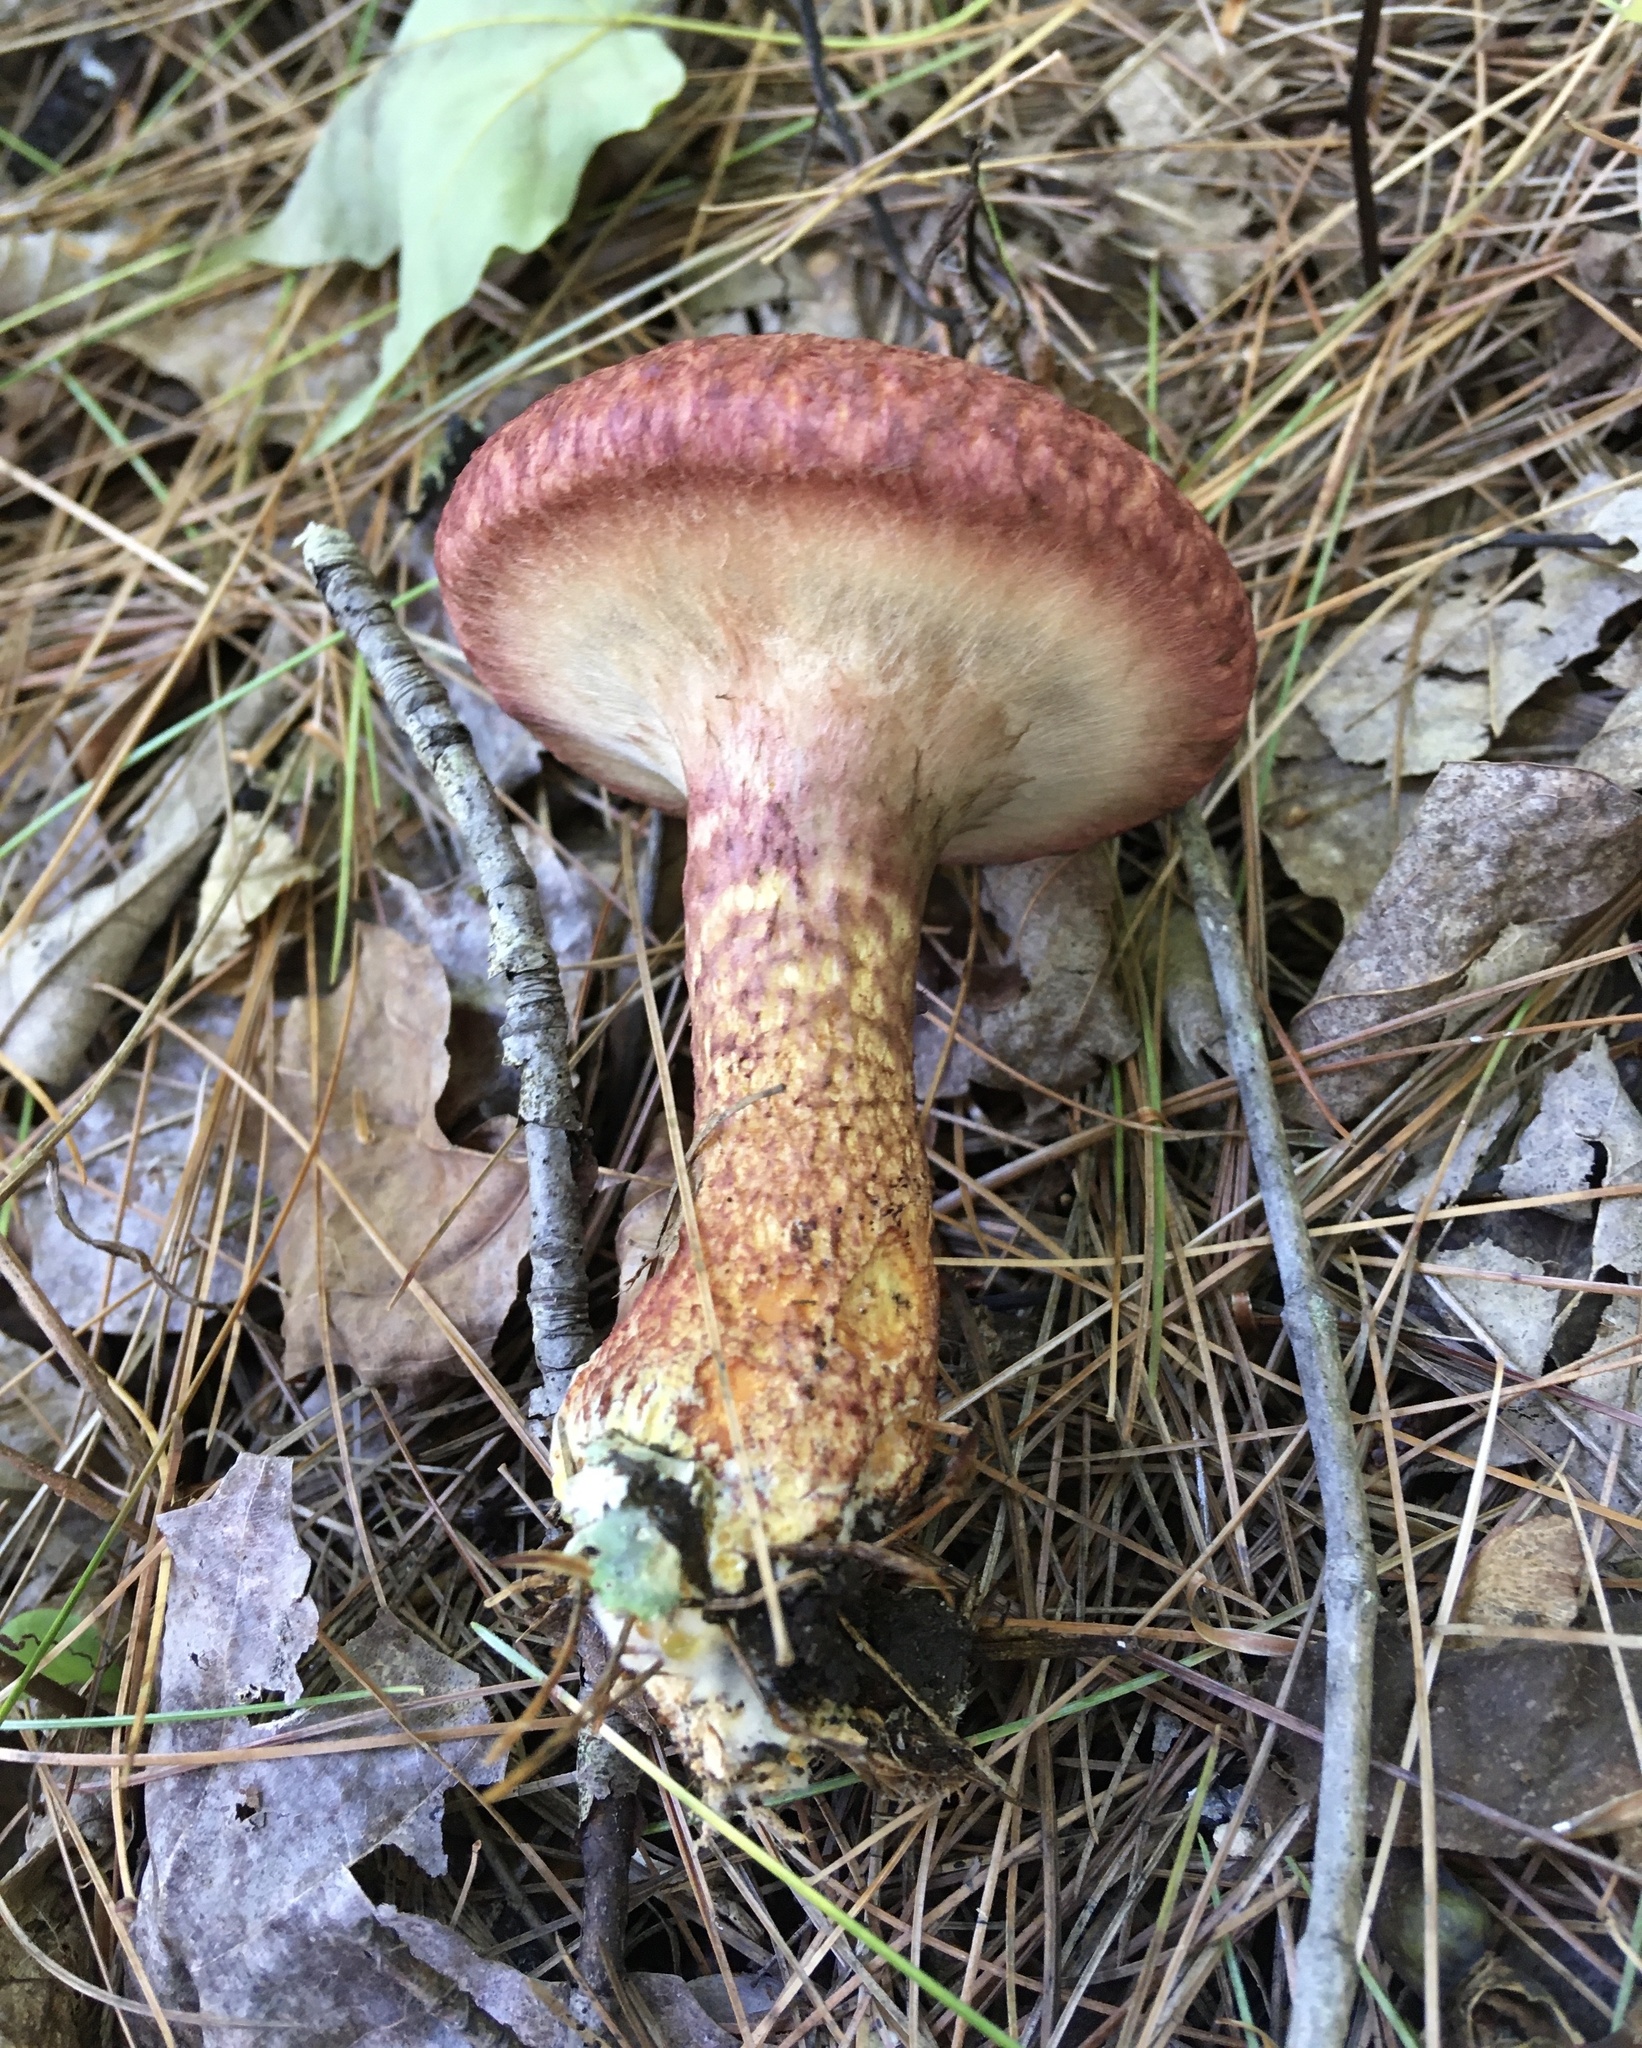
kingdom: Fungi
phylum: Basidiomycota
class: Agaricomycetes
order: Boletales
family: Suillaceae
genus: Suillus
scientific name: Suillus spraguei
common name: Painted suillus
